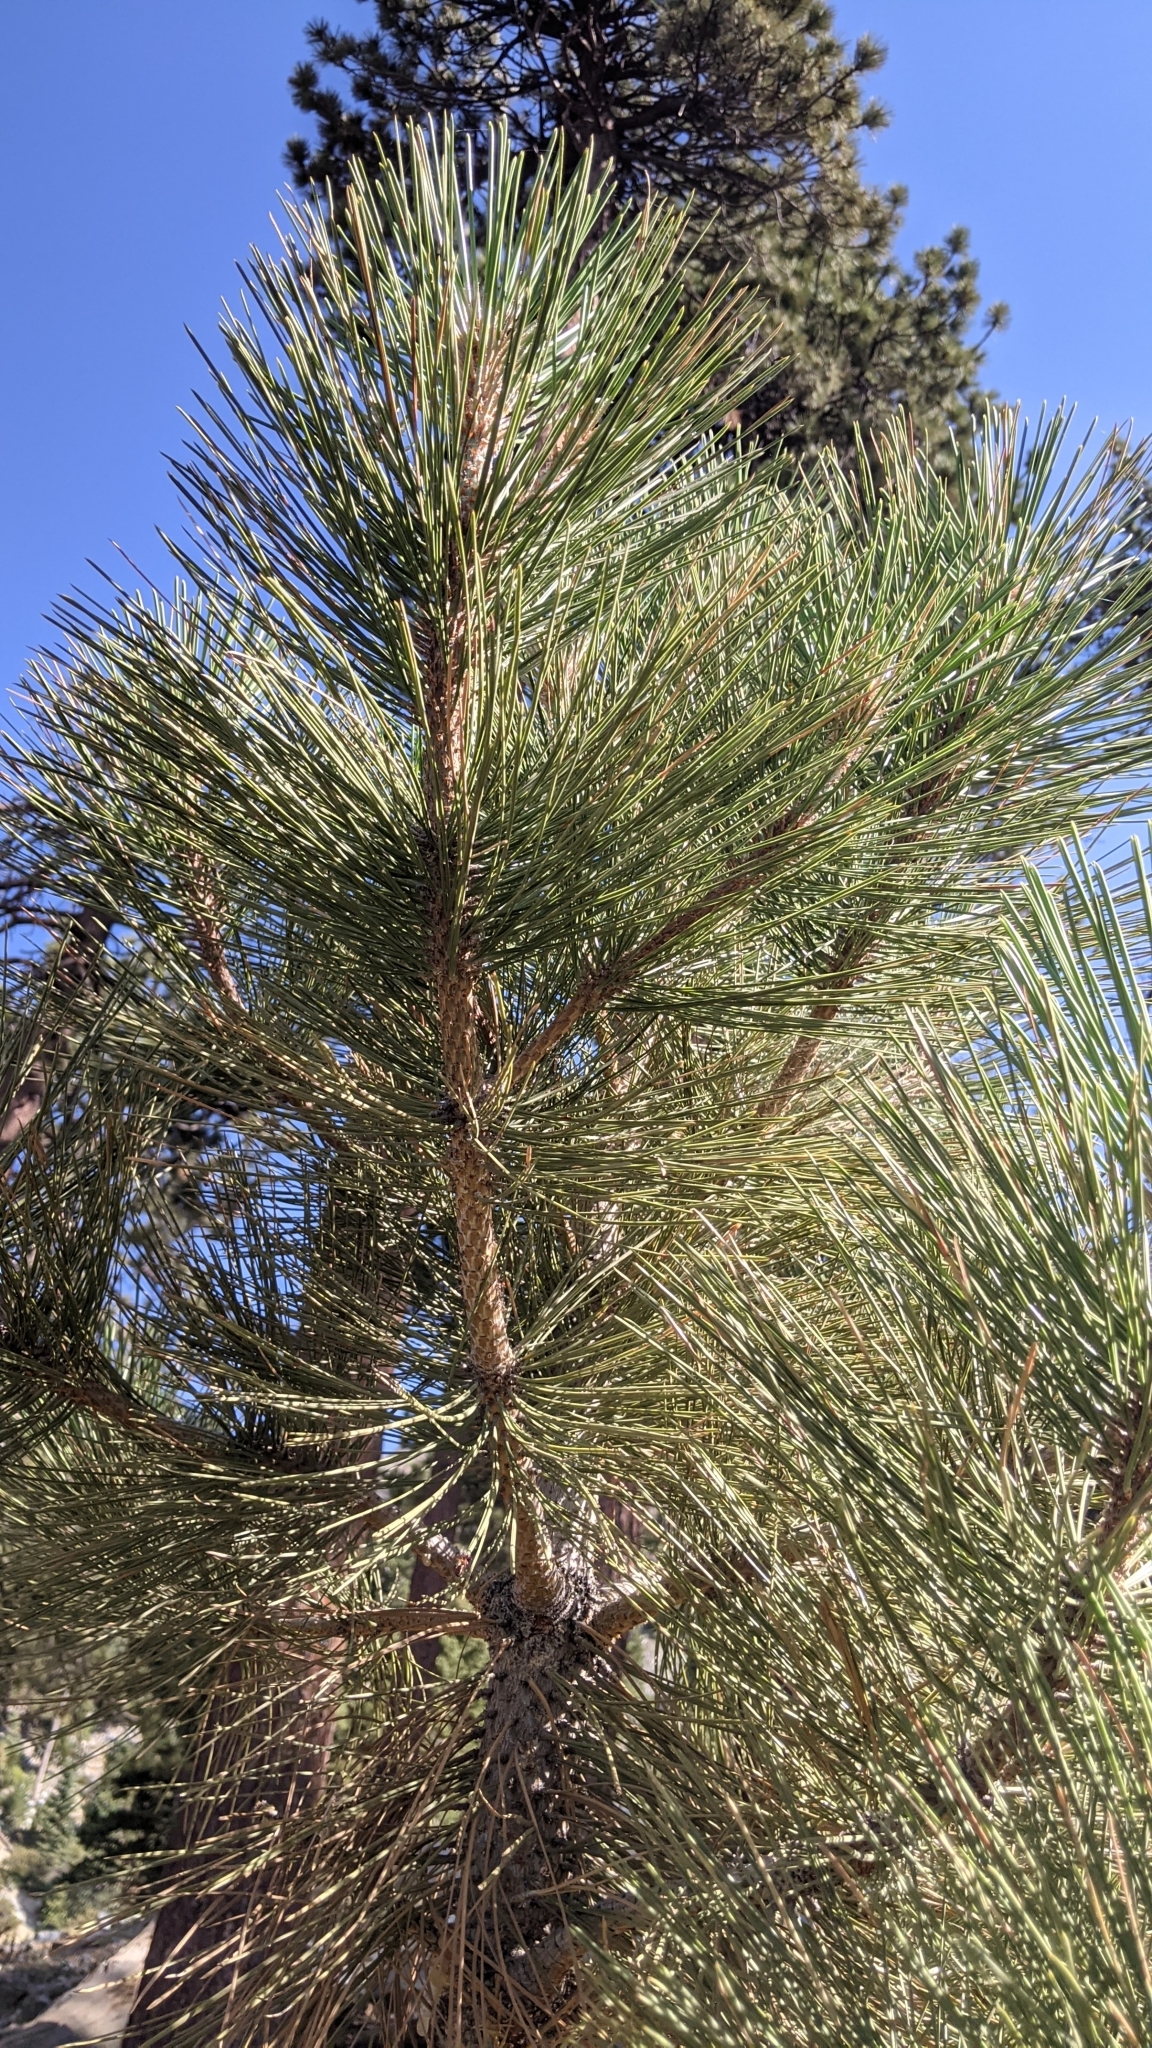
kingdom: Plantae
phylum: Tracheophyta
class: Pinopsida
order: Pinales
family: Pinaceae
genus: Pinus
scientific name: Pinus
